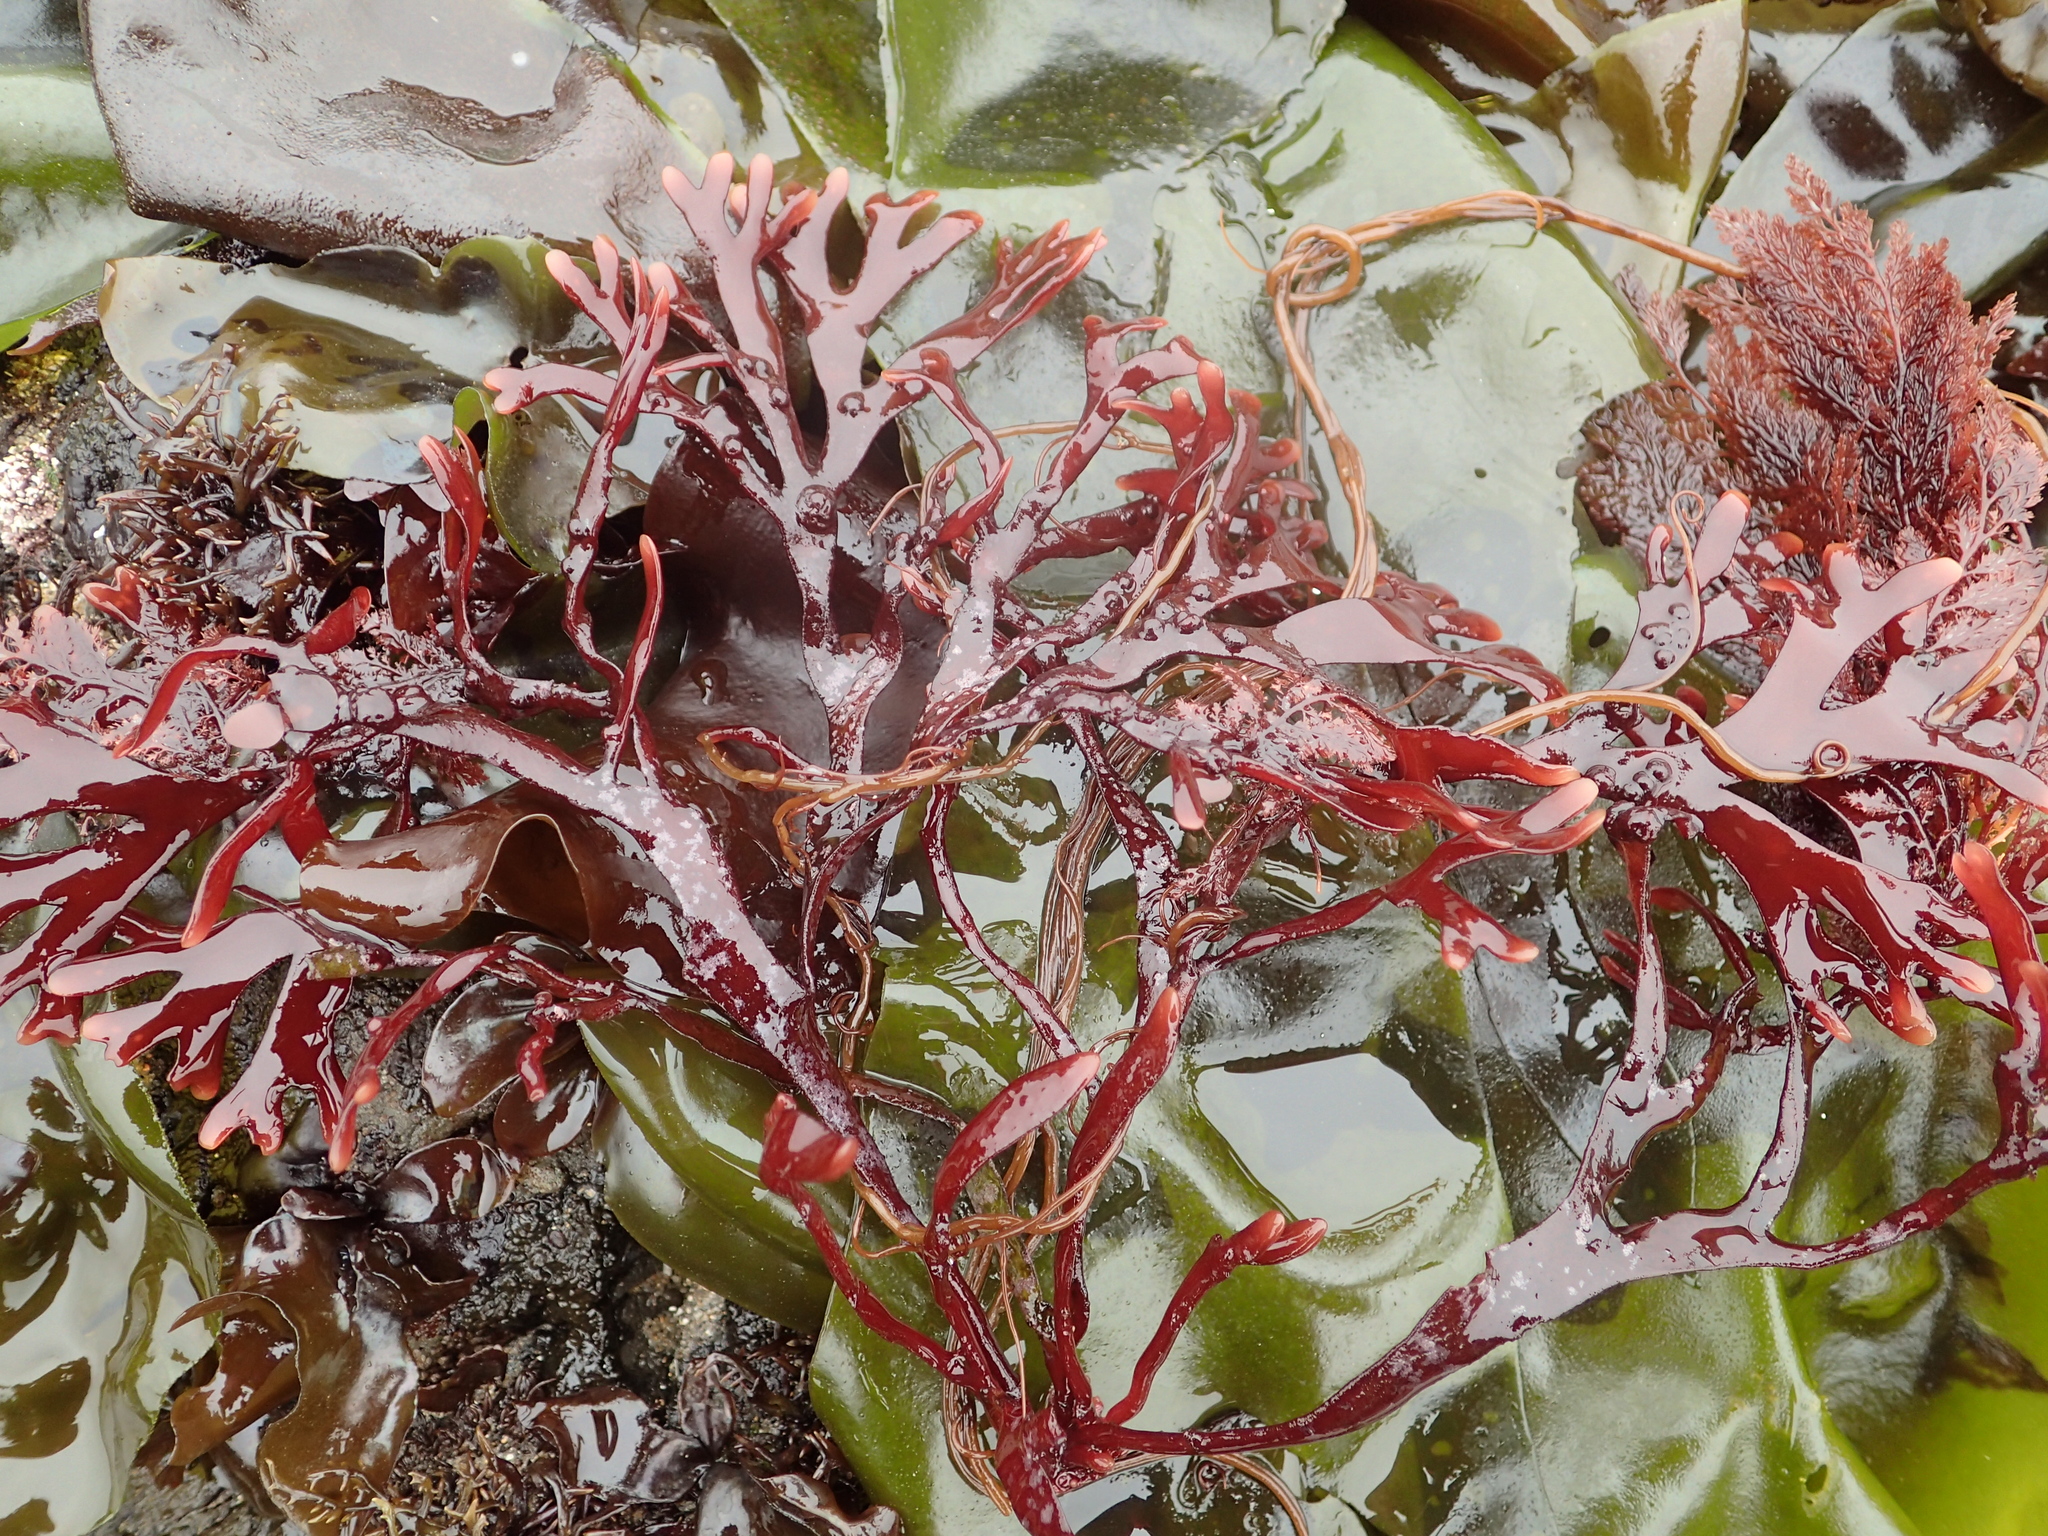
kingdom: Plantae
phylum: Rhodophyta
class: Florideophyceae
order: Gigartinales
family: Phyllophoraceae
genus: Ahnfeltiopsis
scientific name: Ahnfeltiopsis linearis
